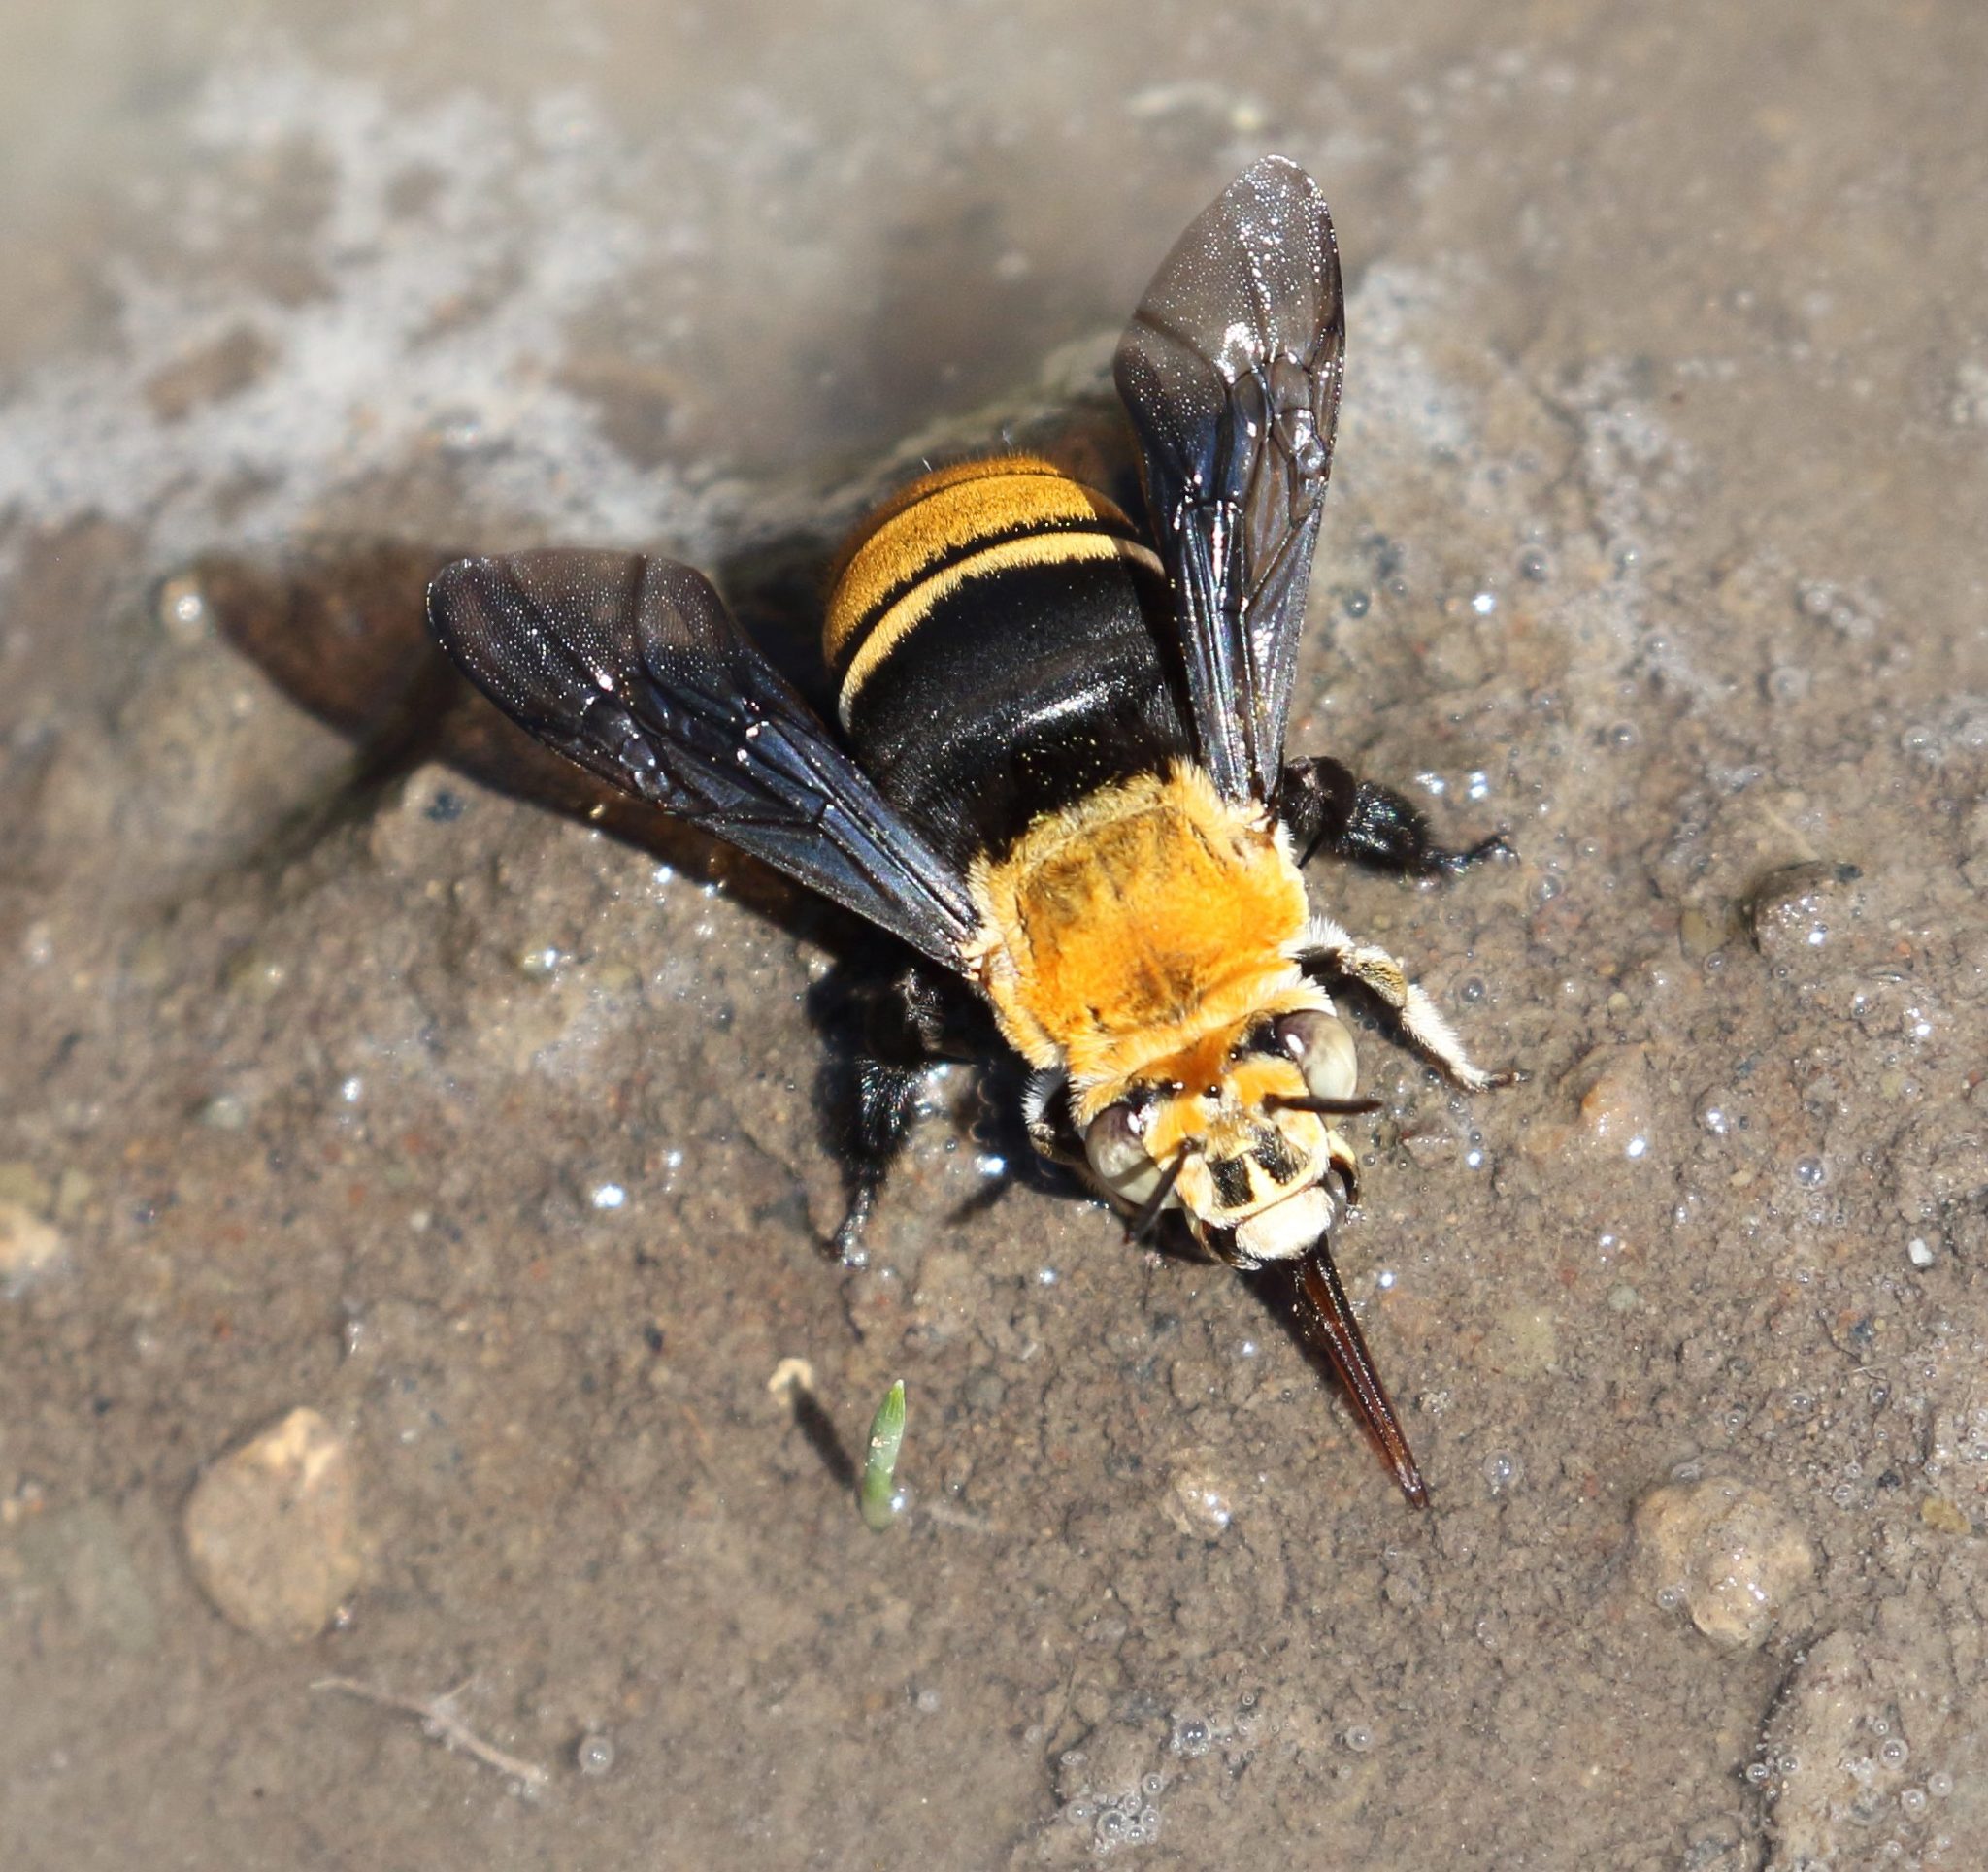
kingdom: Animalia
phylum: Arthropoda
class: Insecta
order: Hymenoptera
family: Apidae
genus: Amegilla
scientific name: Amegilla atrocincta
